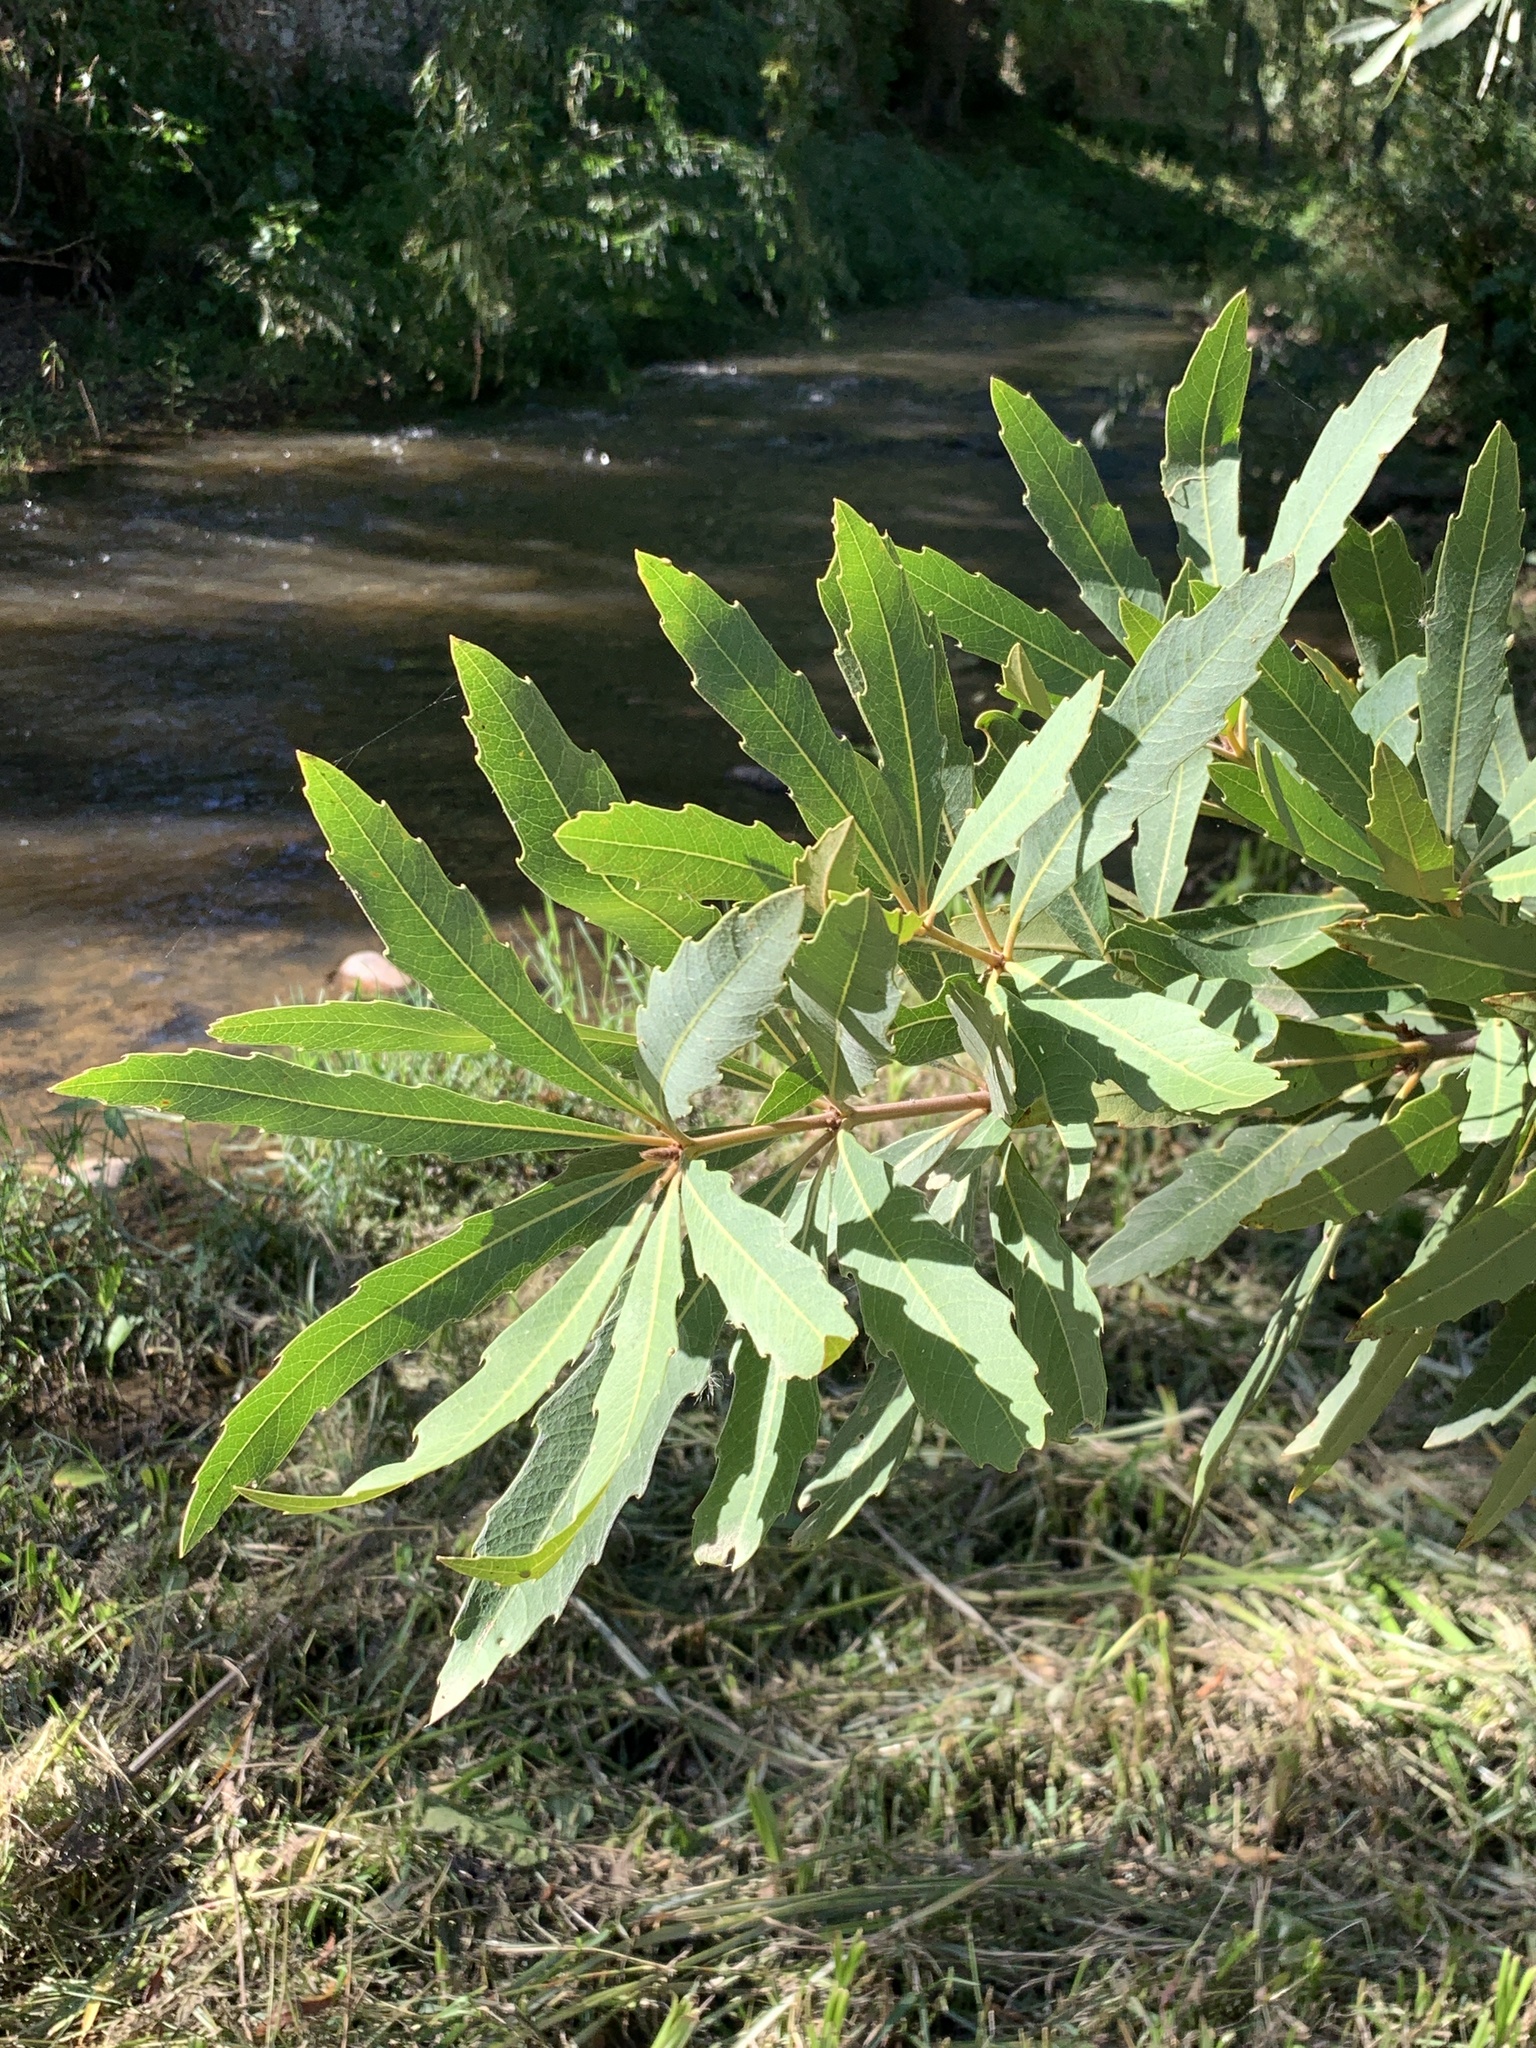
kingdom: Plantae
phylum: Tracheophyta
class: Magnoliopsida
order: Proteales
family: Proteaceae
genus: Brabejum
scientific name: Brabejum stellatifolium
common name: Wild almond
